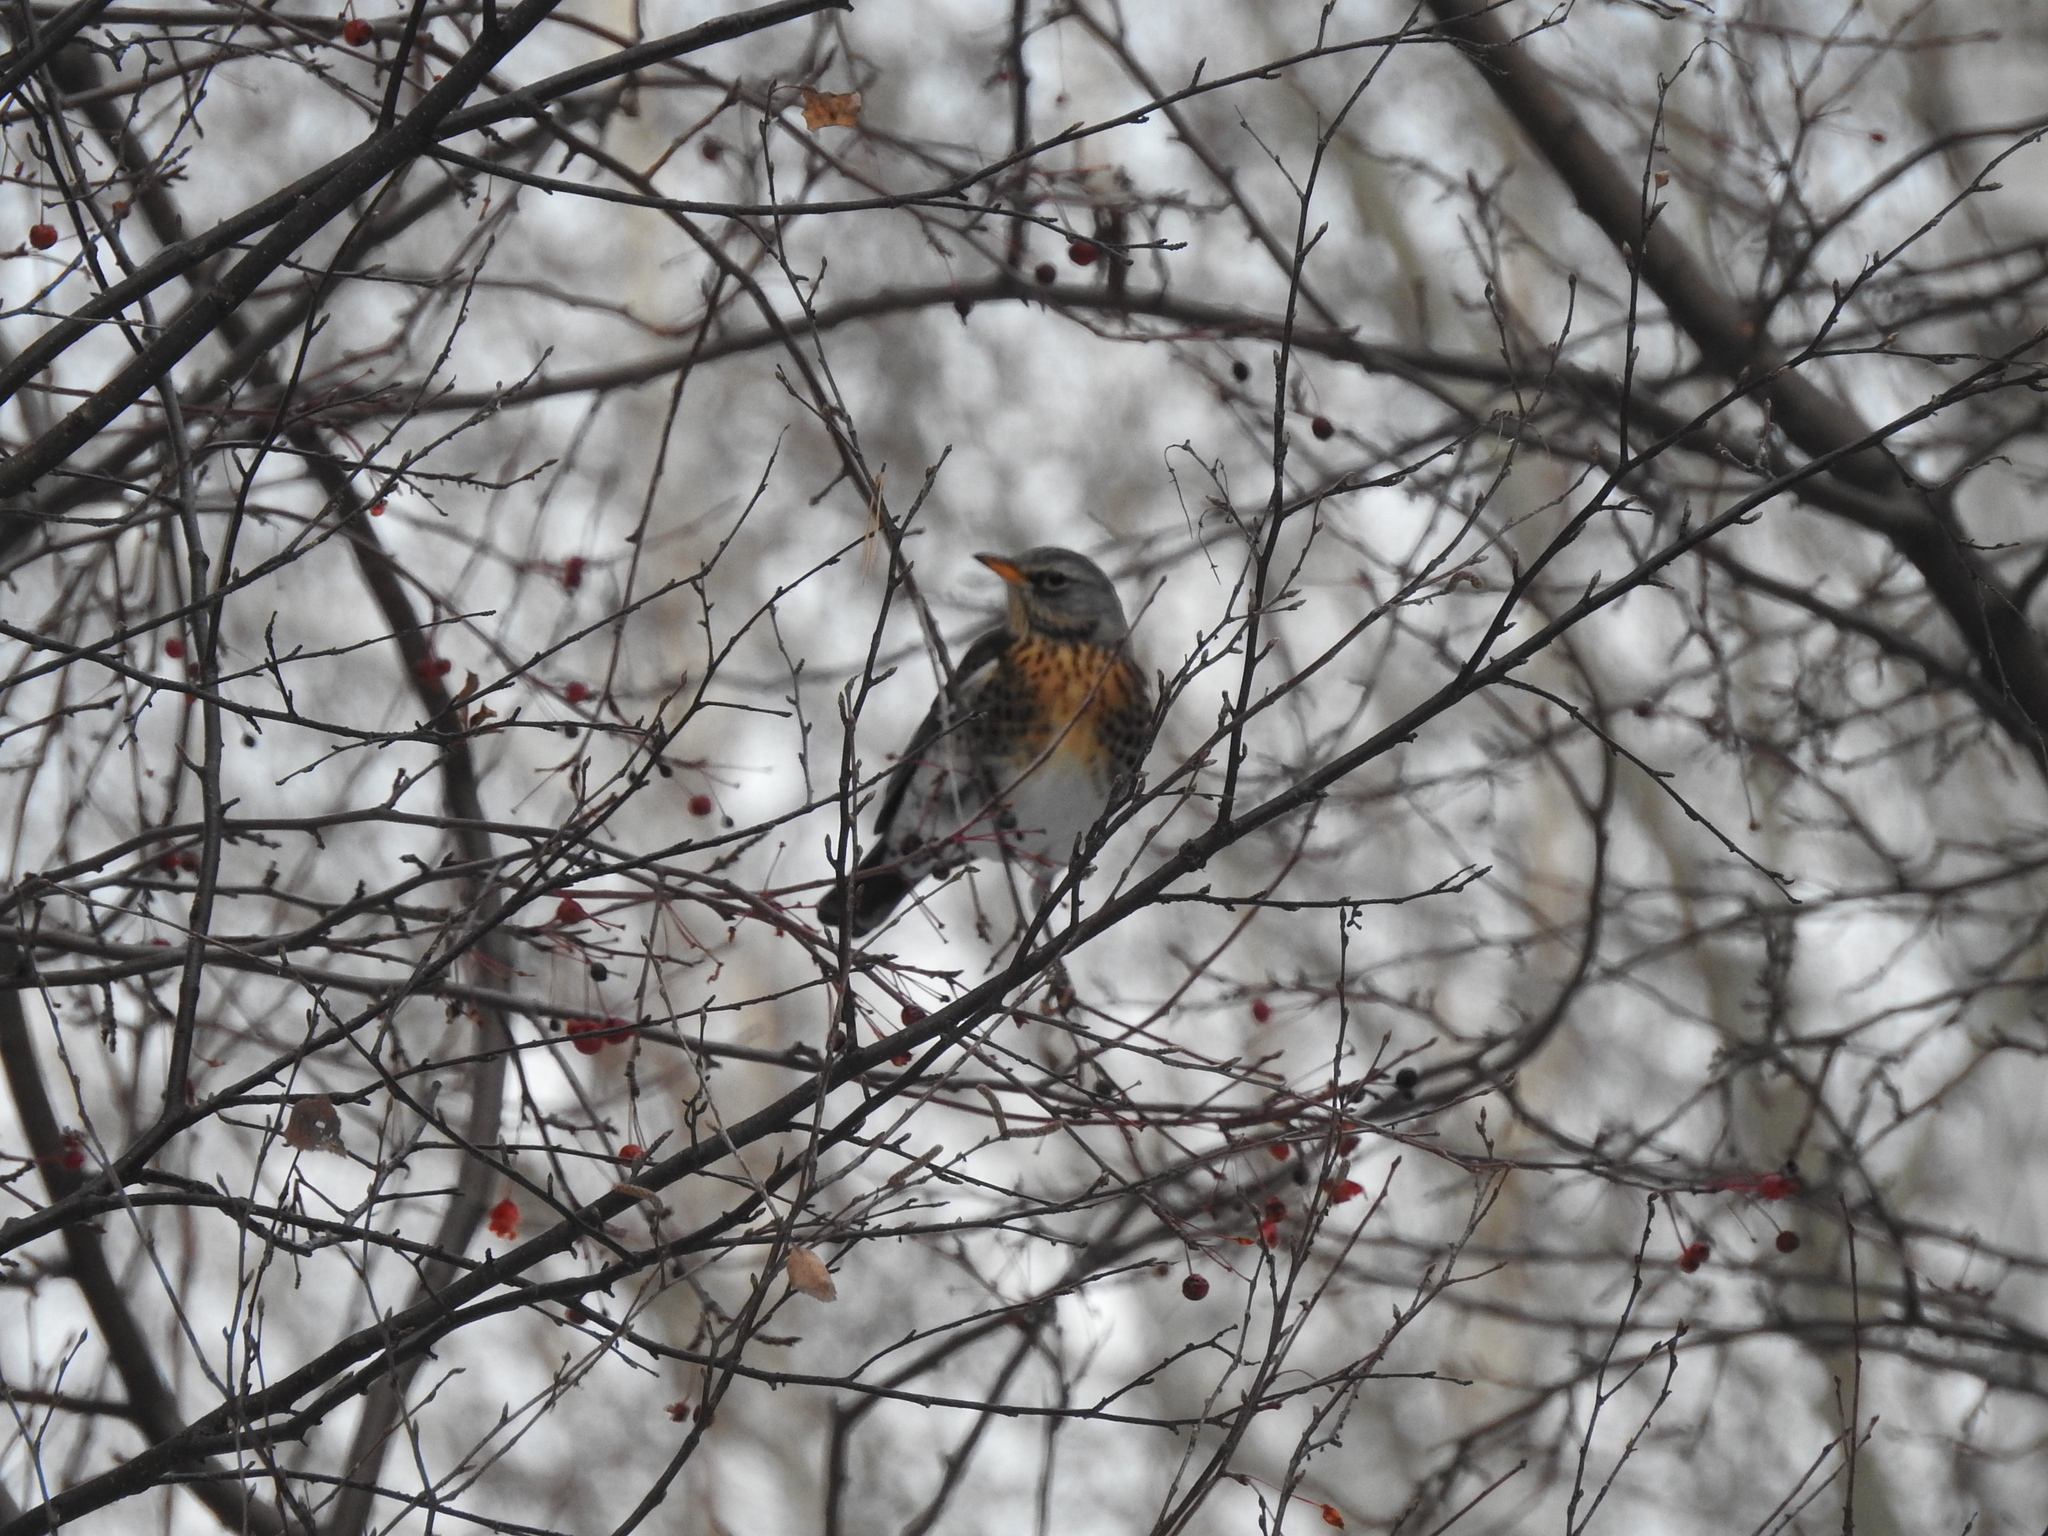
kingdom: Animalia
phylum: Chordata
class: Aves
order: Passeriformes
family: Turdidae
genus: Turdus
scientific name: Turdus pilaris
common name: Fieldfare
